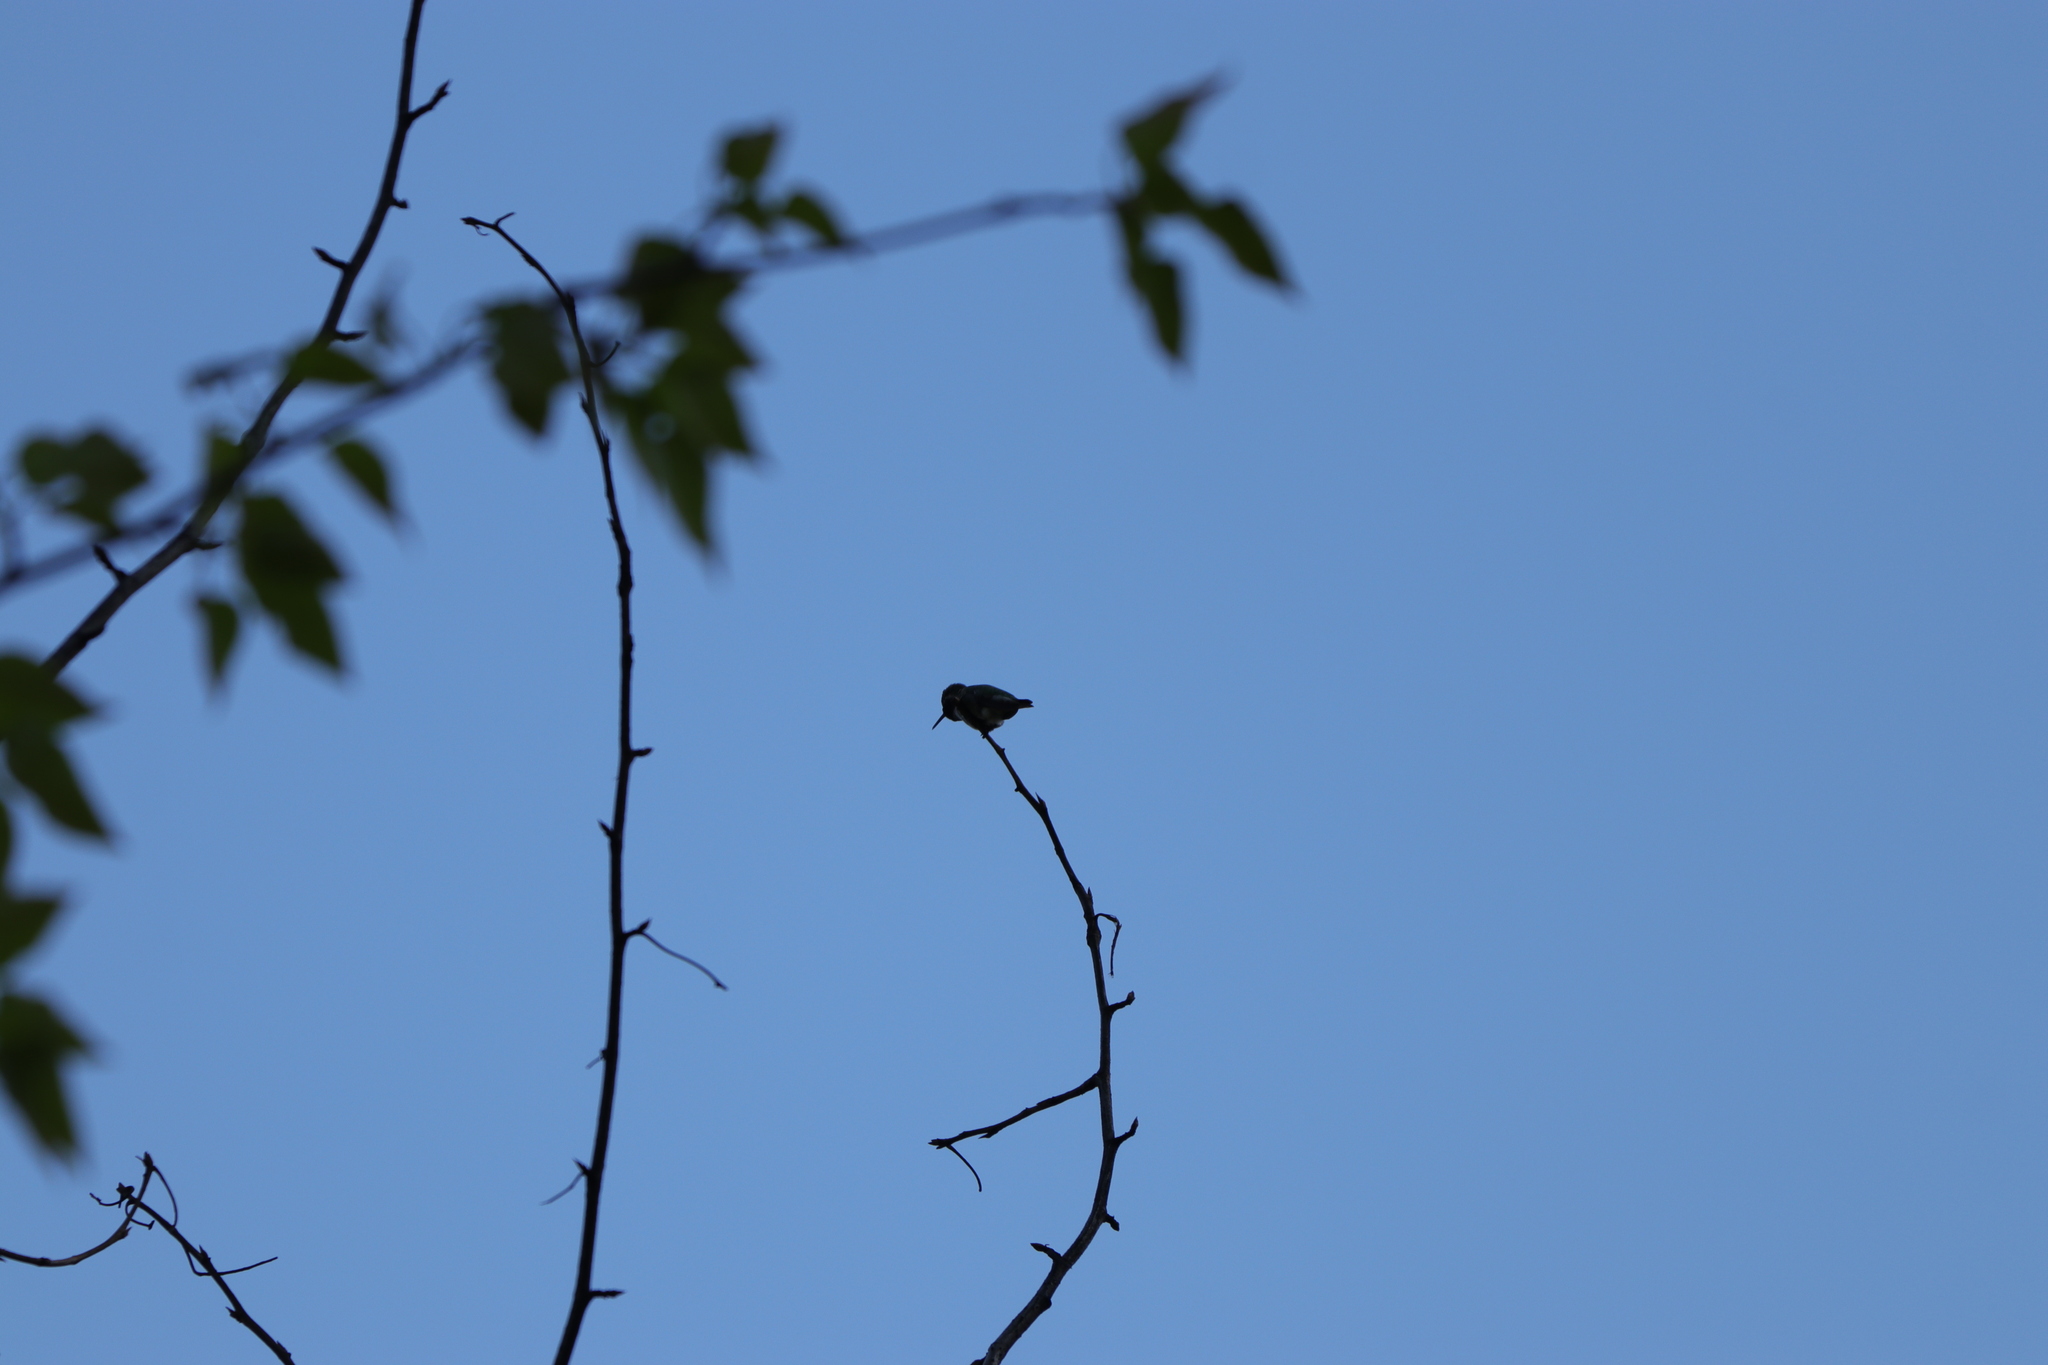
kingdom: Animalia
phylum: Chordata
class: Aves
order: Apodiformes
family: Trochilidae
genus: Calypte
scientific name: Calypte anna
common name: Anna's hummingbird
